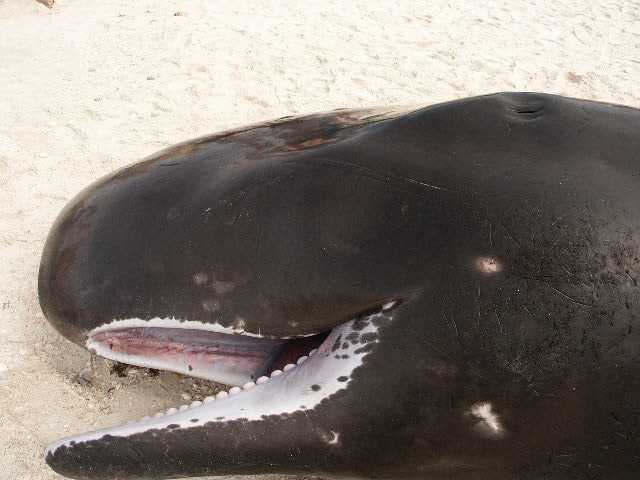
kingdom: Animalia
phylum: Chordata
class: Mammalia
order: Cetacea
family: Physeteridae
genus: Physeter
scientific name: Physeter macrocephalus
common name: Sperm whale
